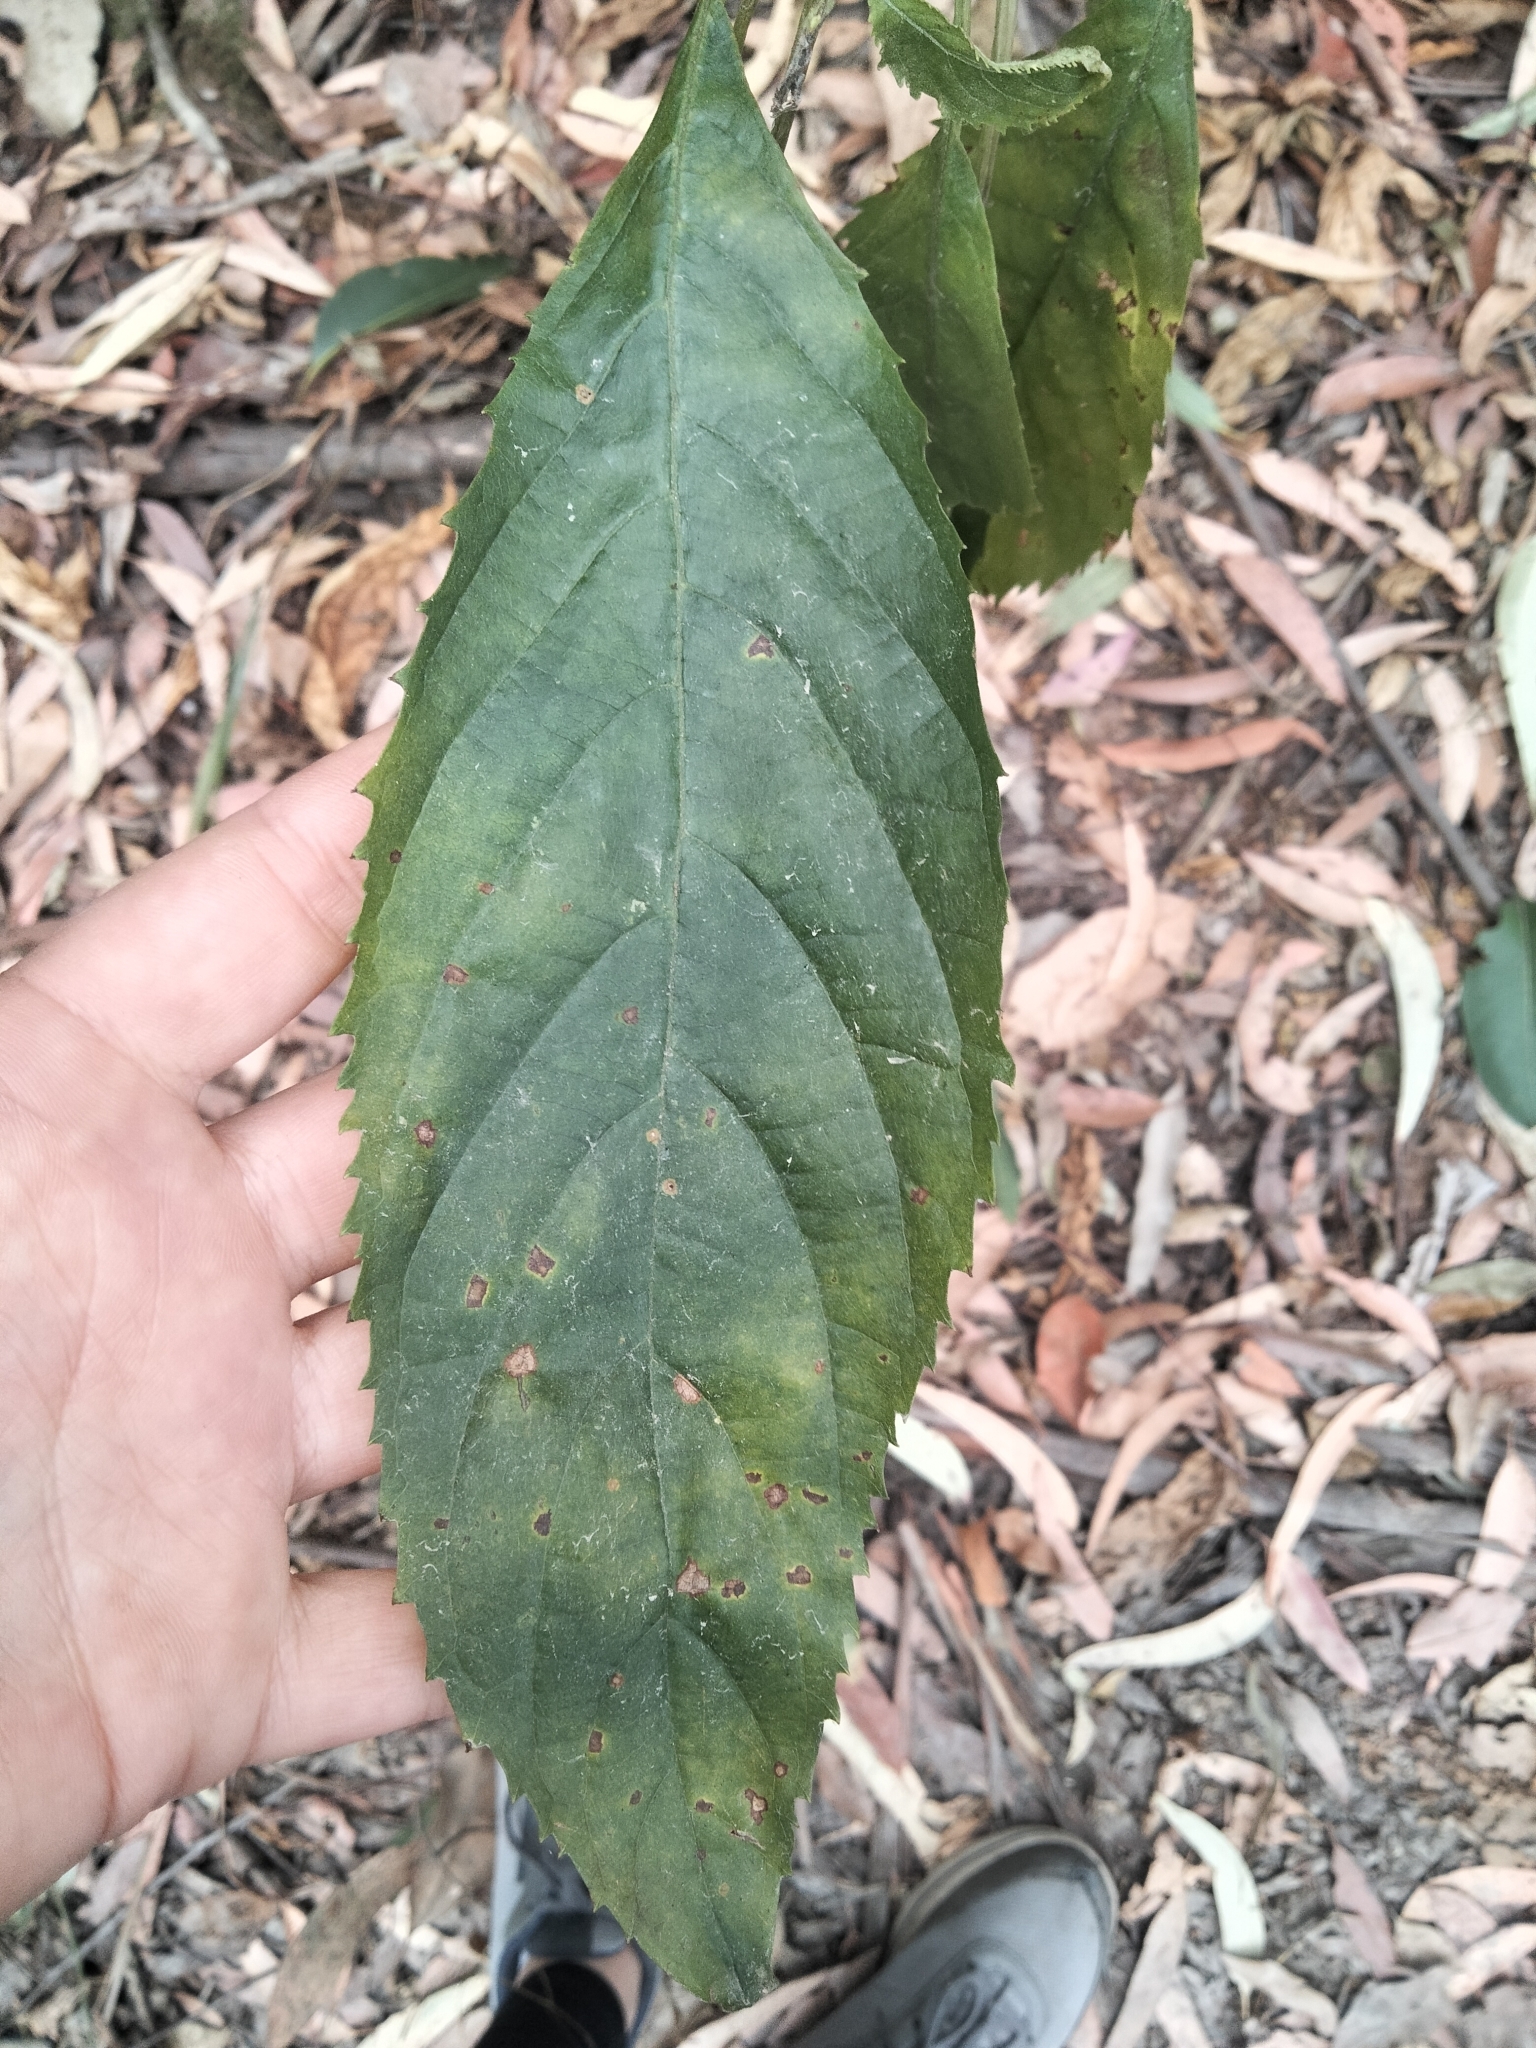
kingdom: Plantae
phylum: Tracheophyta
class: Magnoliopsida
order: Asterales
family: Rousseaceae
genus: Cuttsia
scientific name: Cuttsia viburnea
